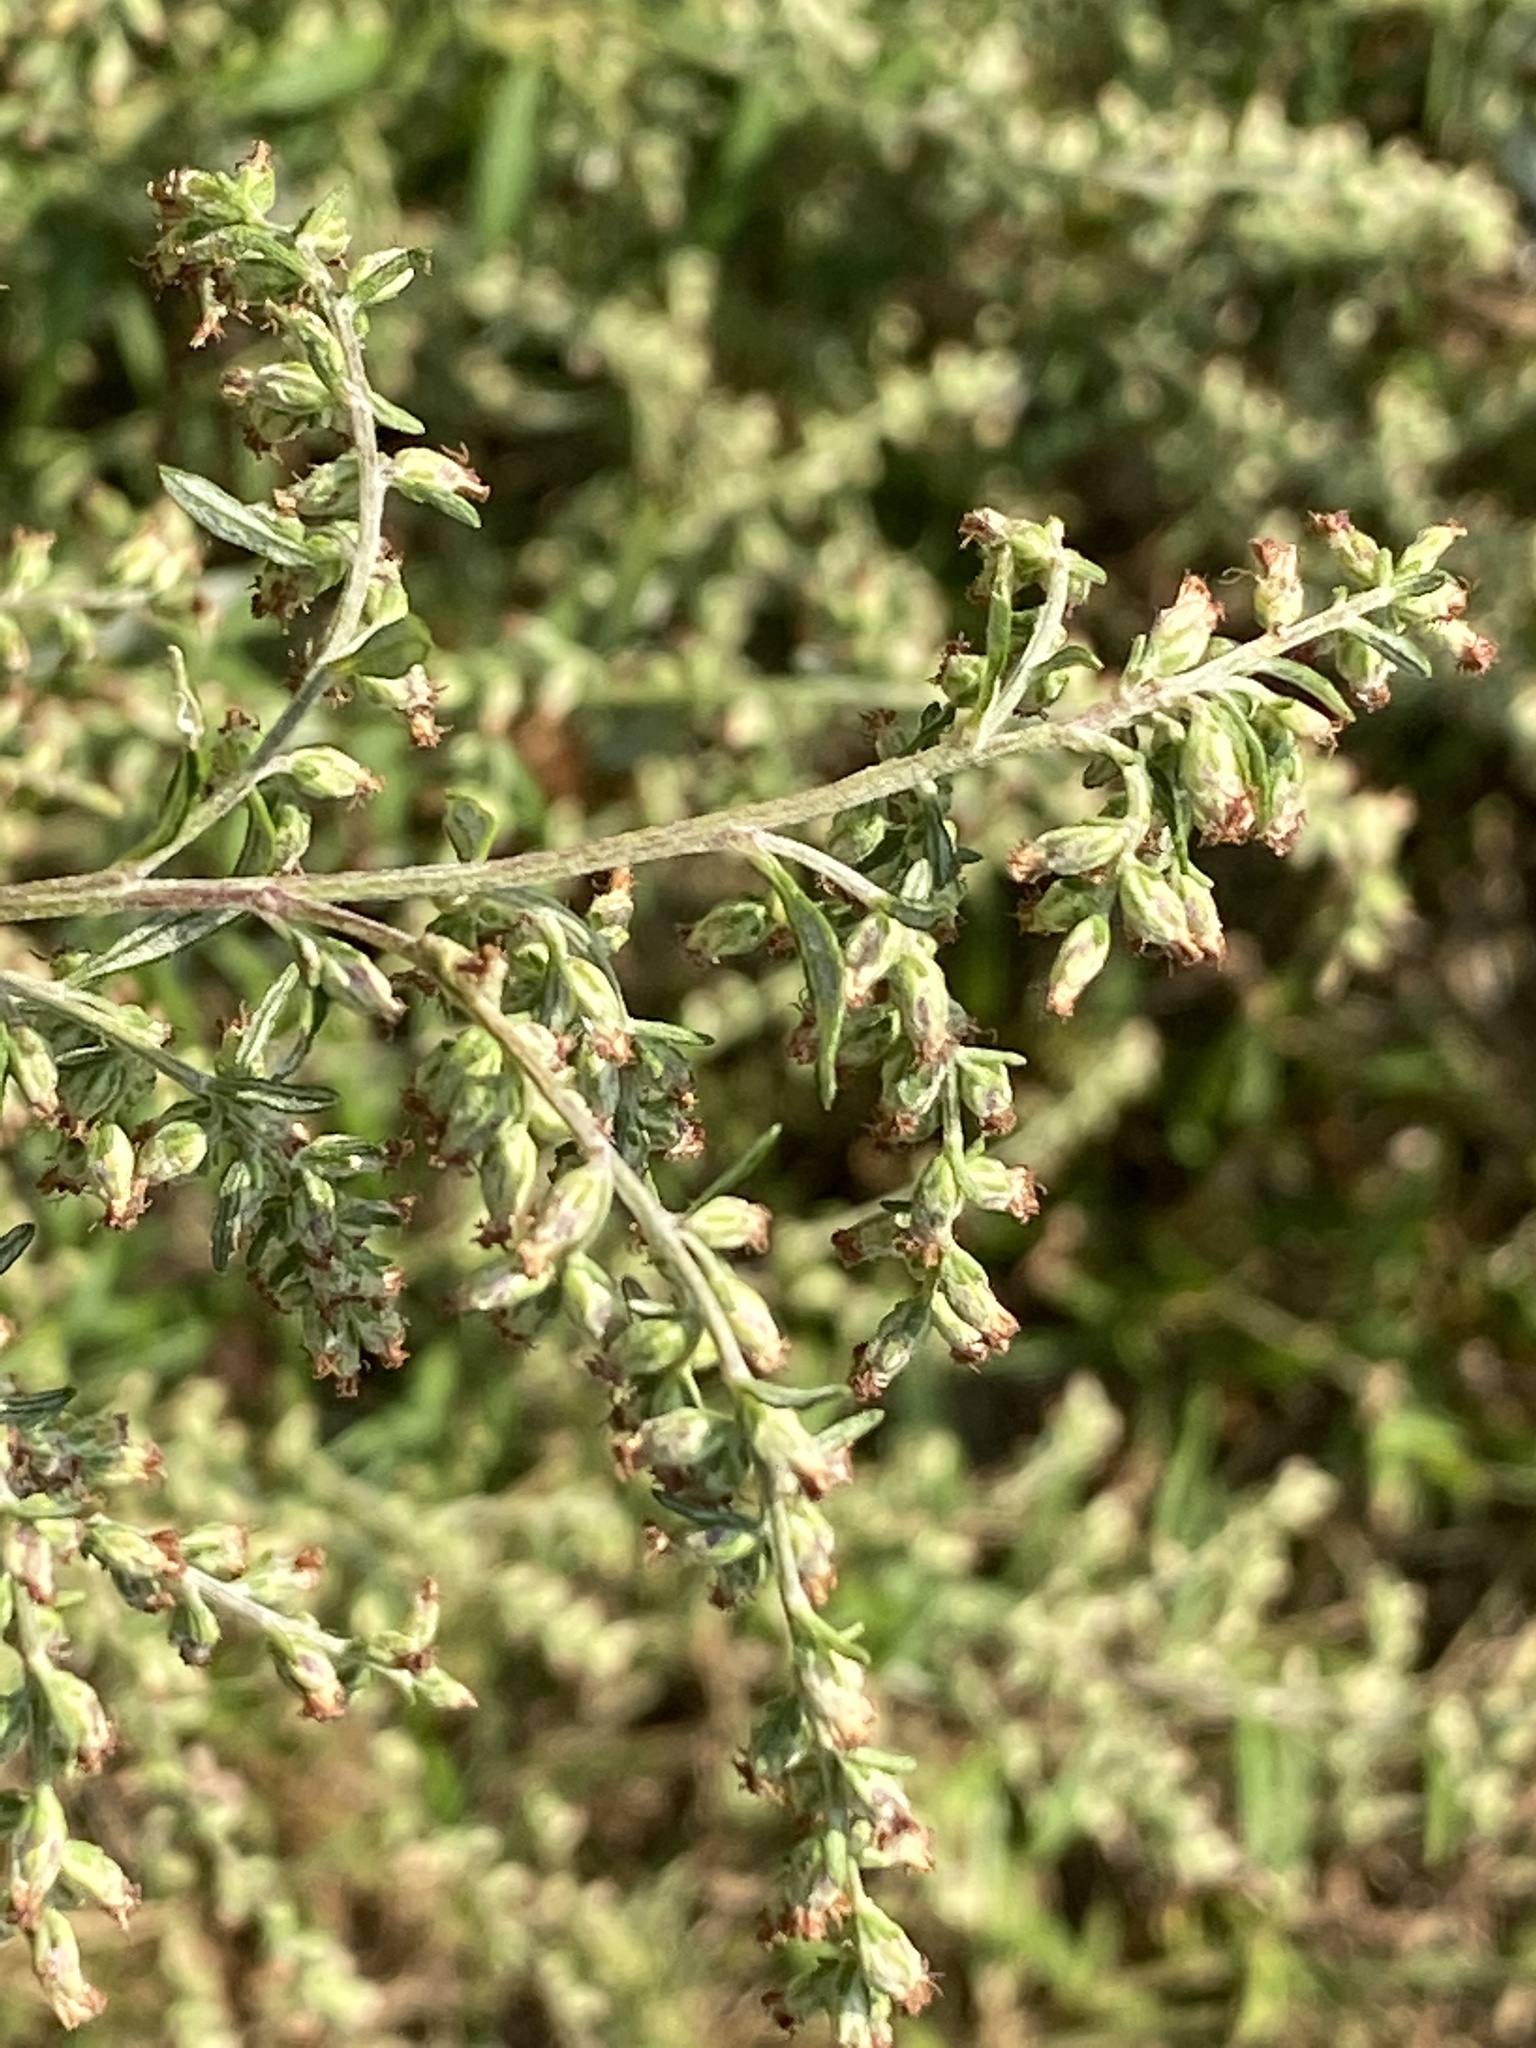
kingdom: Plantae
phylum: Tracheophyta
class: Magnoliopsida
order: Asterales
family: Asteraceae
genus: Artemisia
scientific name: Artemisia vulgaris
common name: Mugwort
